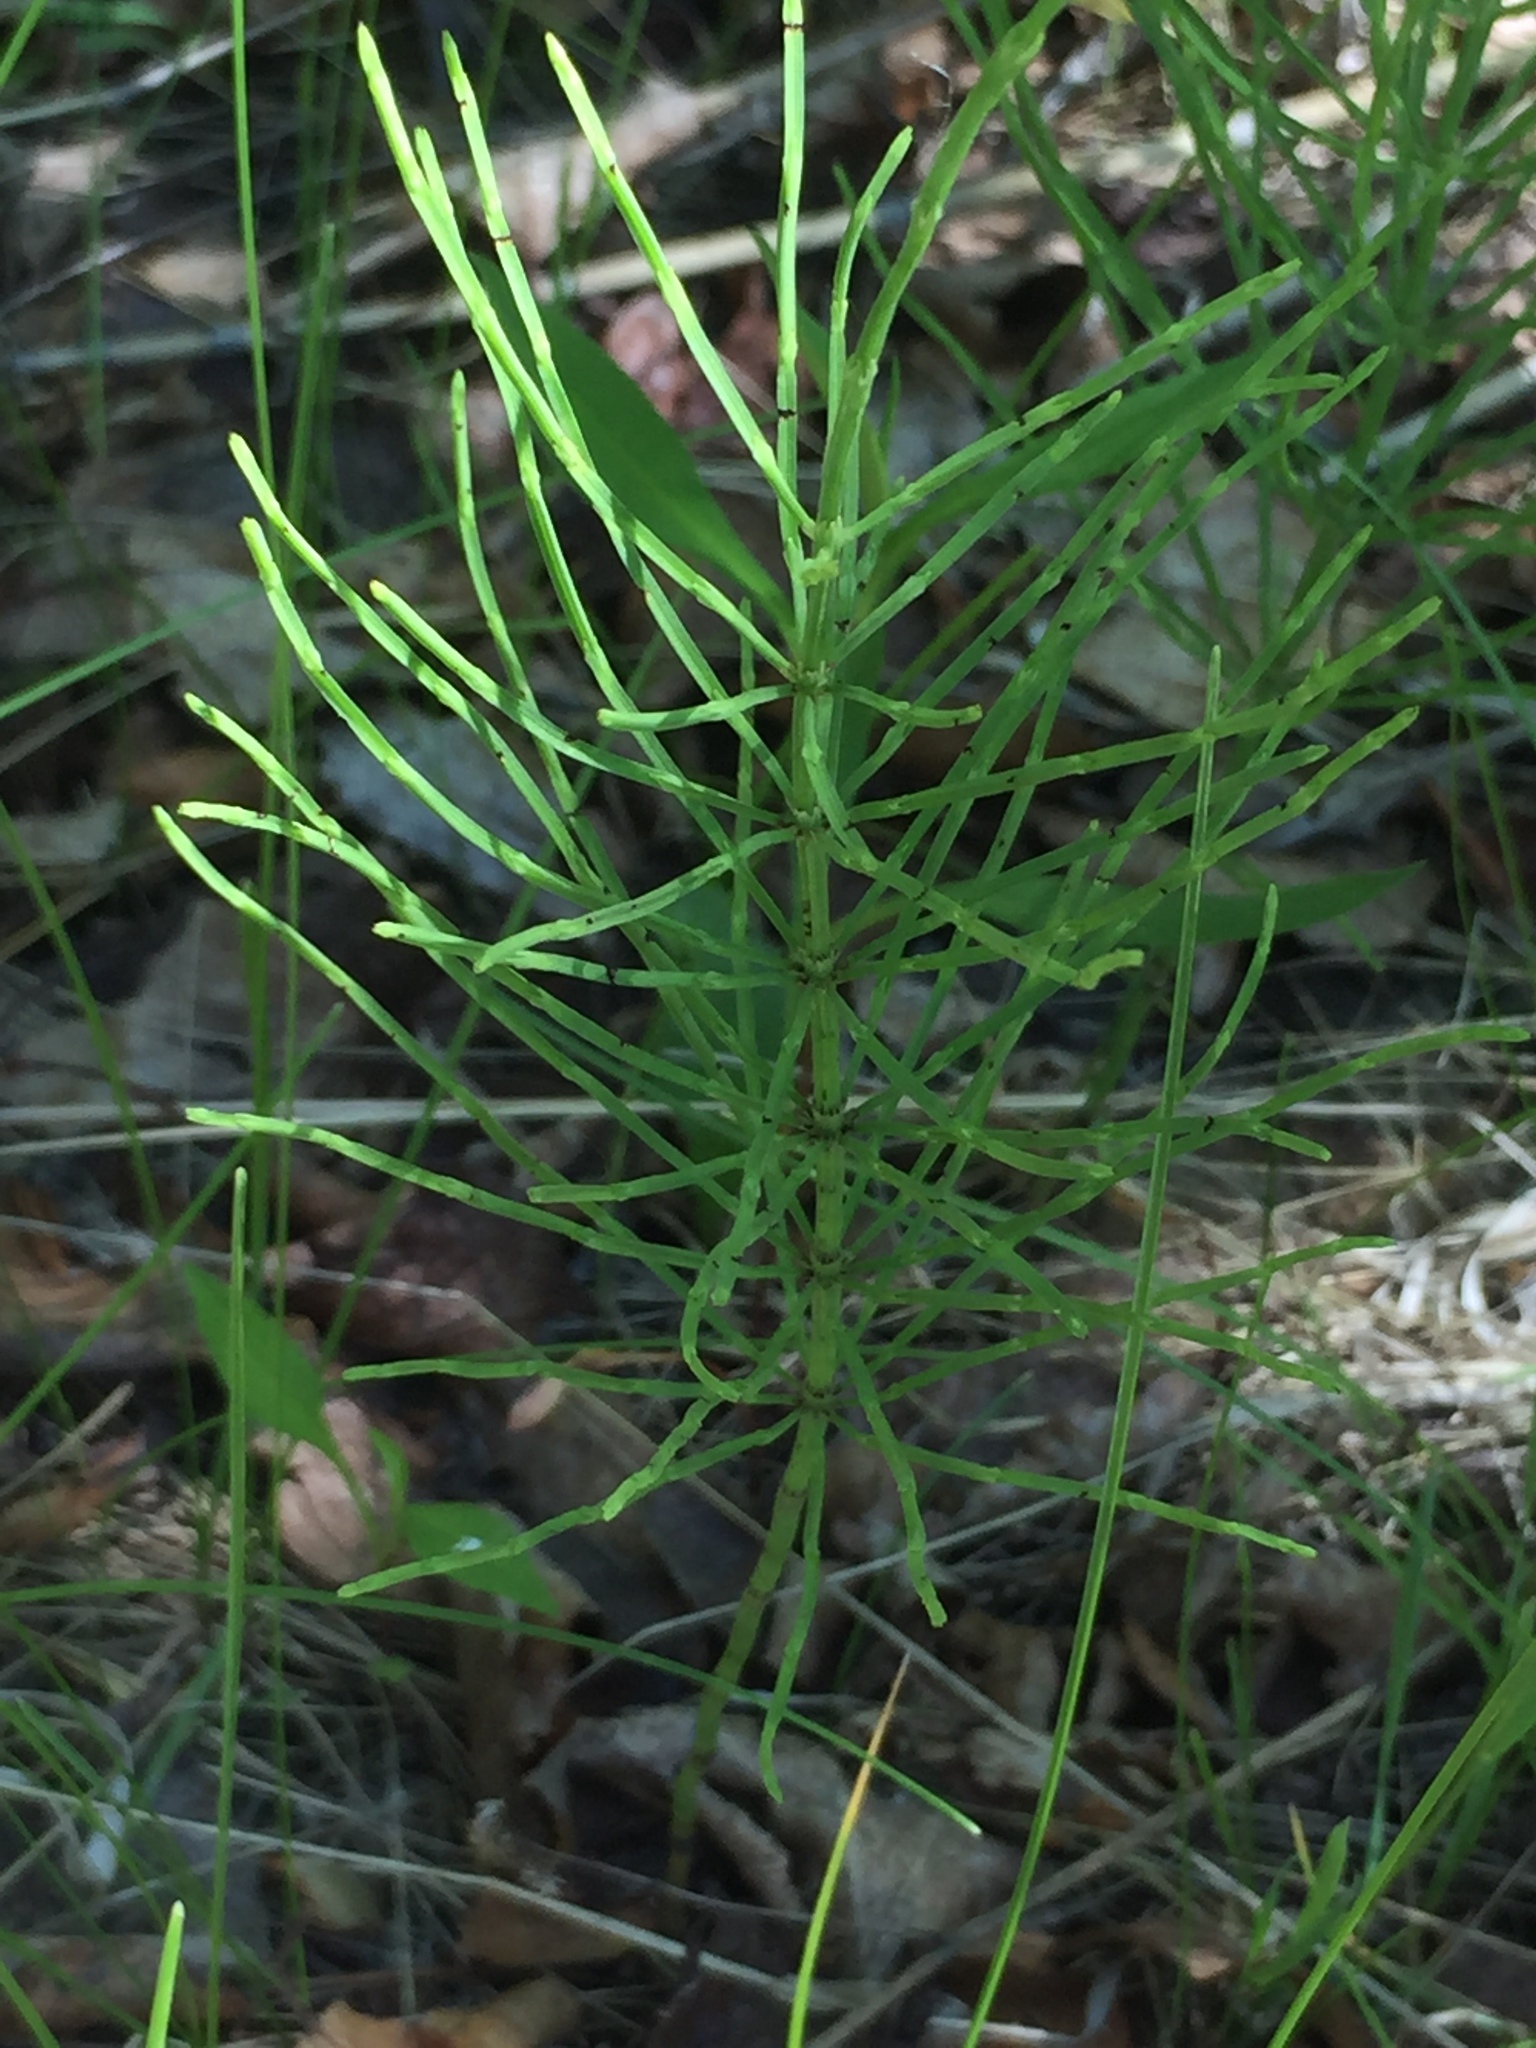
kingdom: Plantae
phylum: Tracheophyta
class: Polypodiopsida
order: Equisetales
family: Equisetaceae
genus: Equisetum
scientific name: Equisetum arvense
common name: Field horsetail
